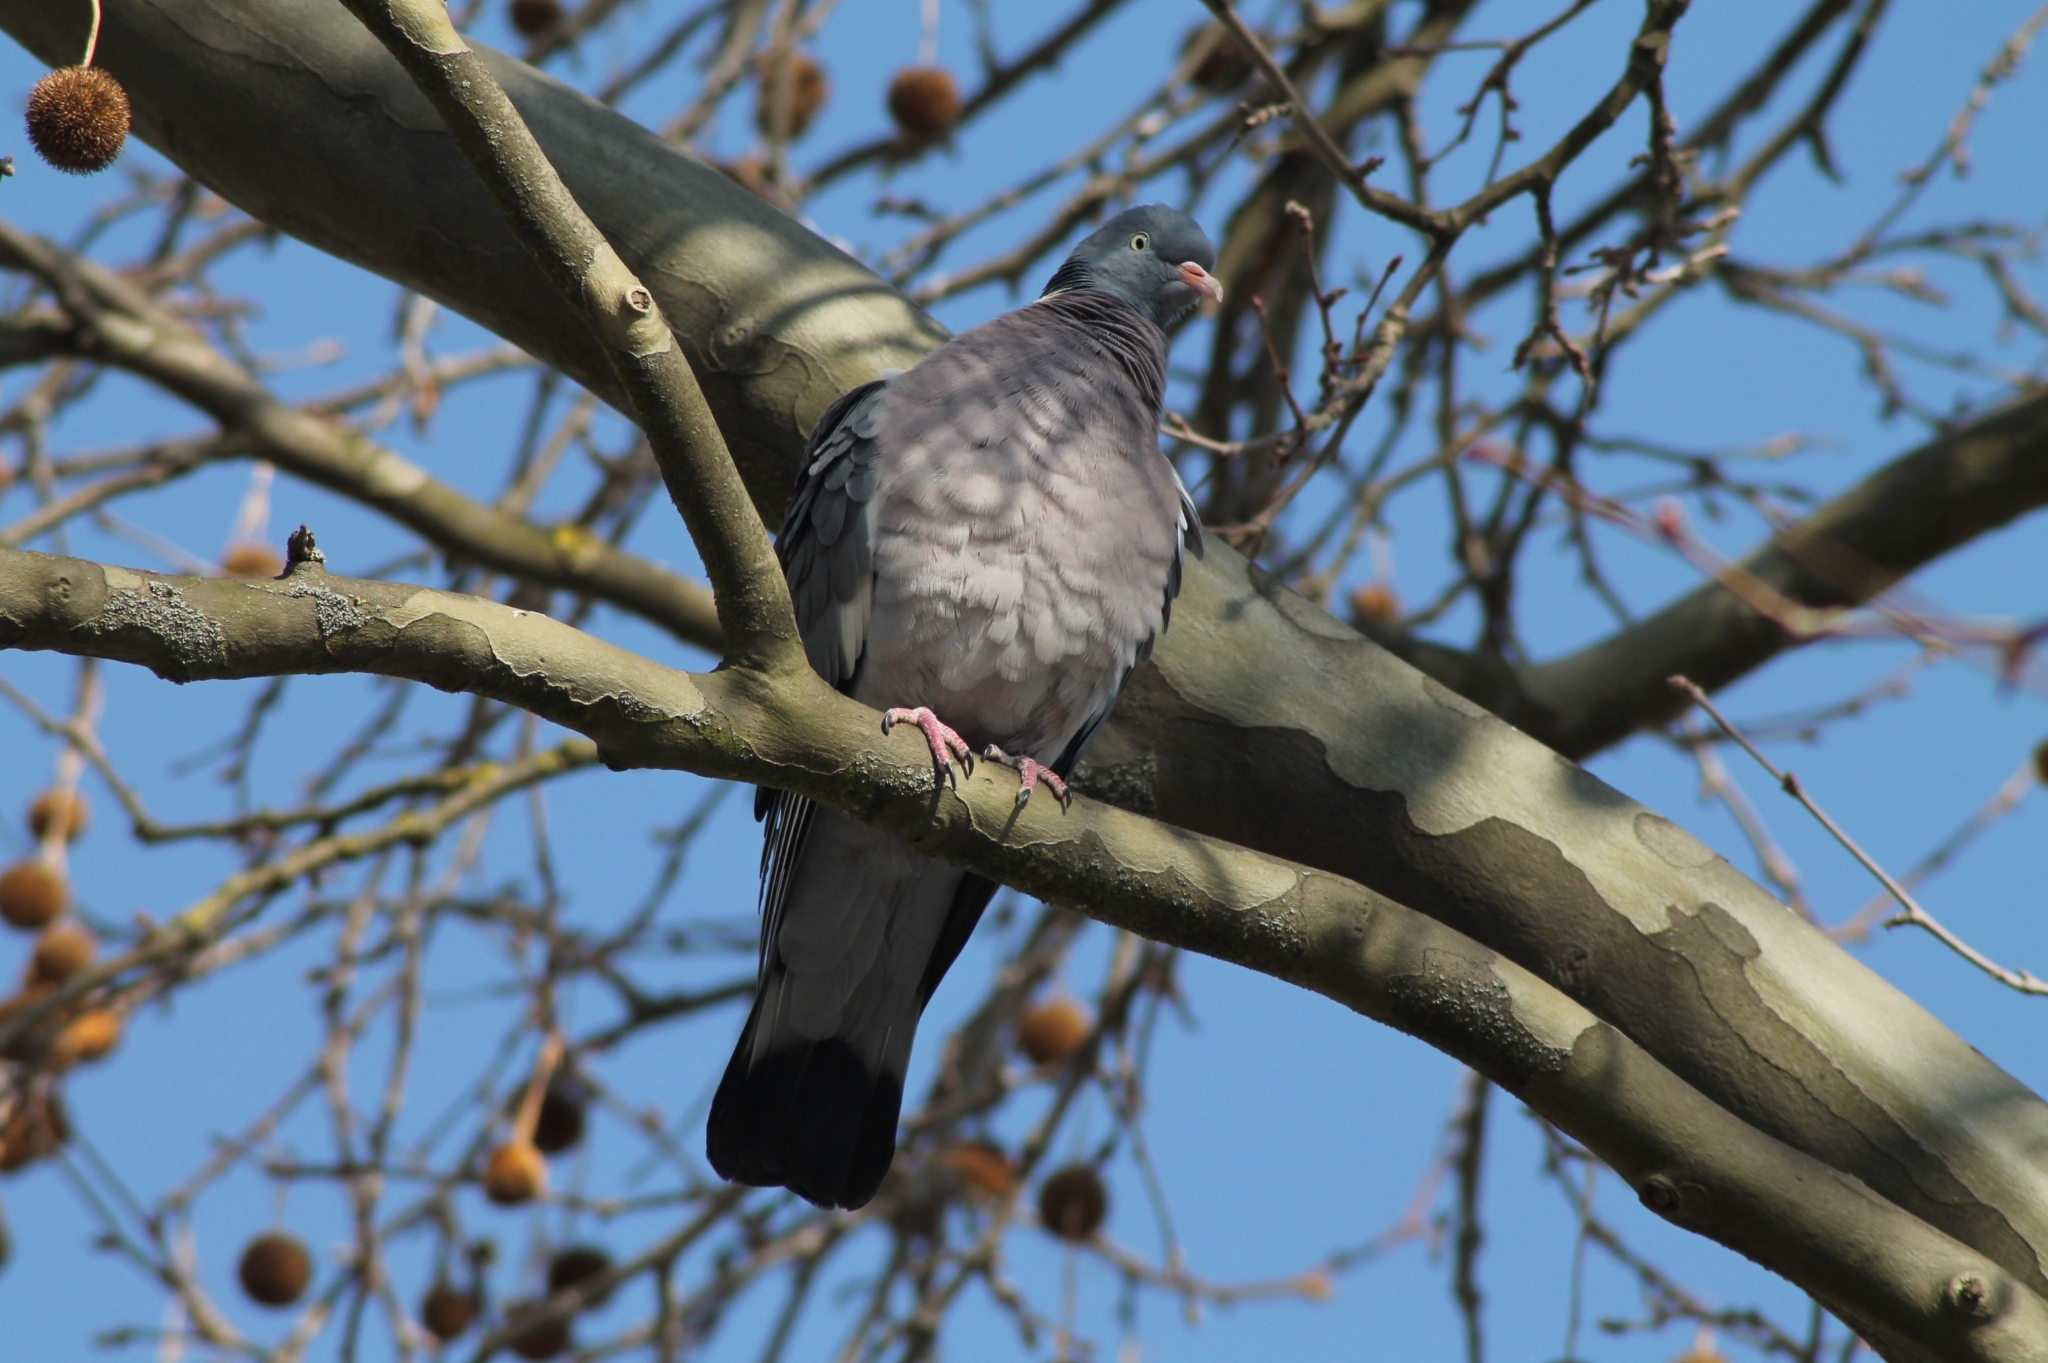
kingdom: Animalia
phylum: Chordata
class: Aves
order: Columbiformes
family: Columbidae
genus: Columba
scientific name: Columba palumbus
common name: Common wood pigeon
